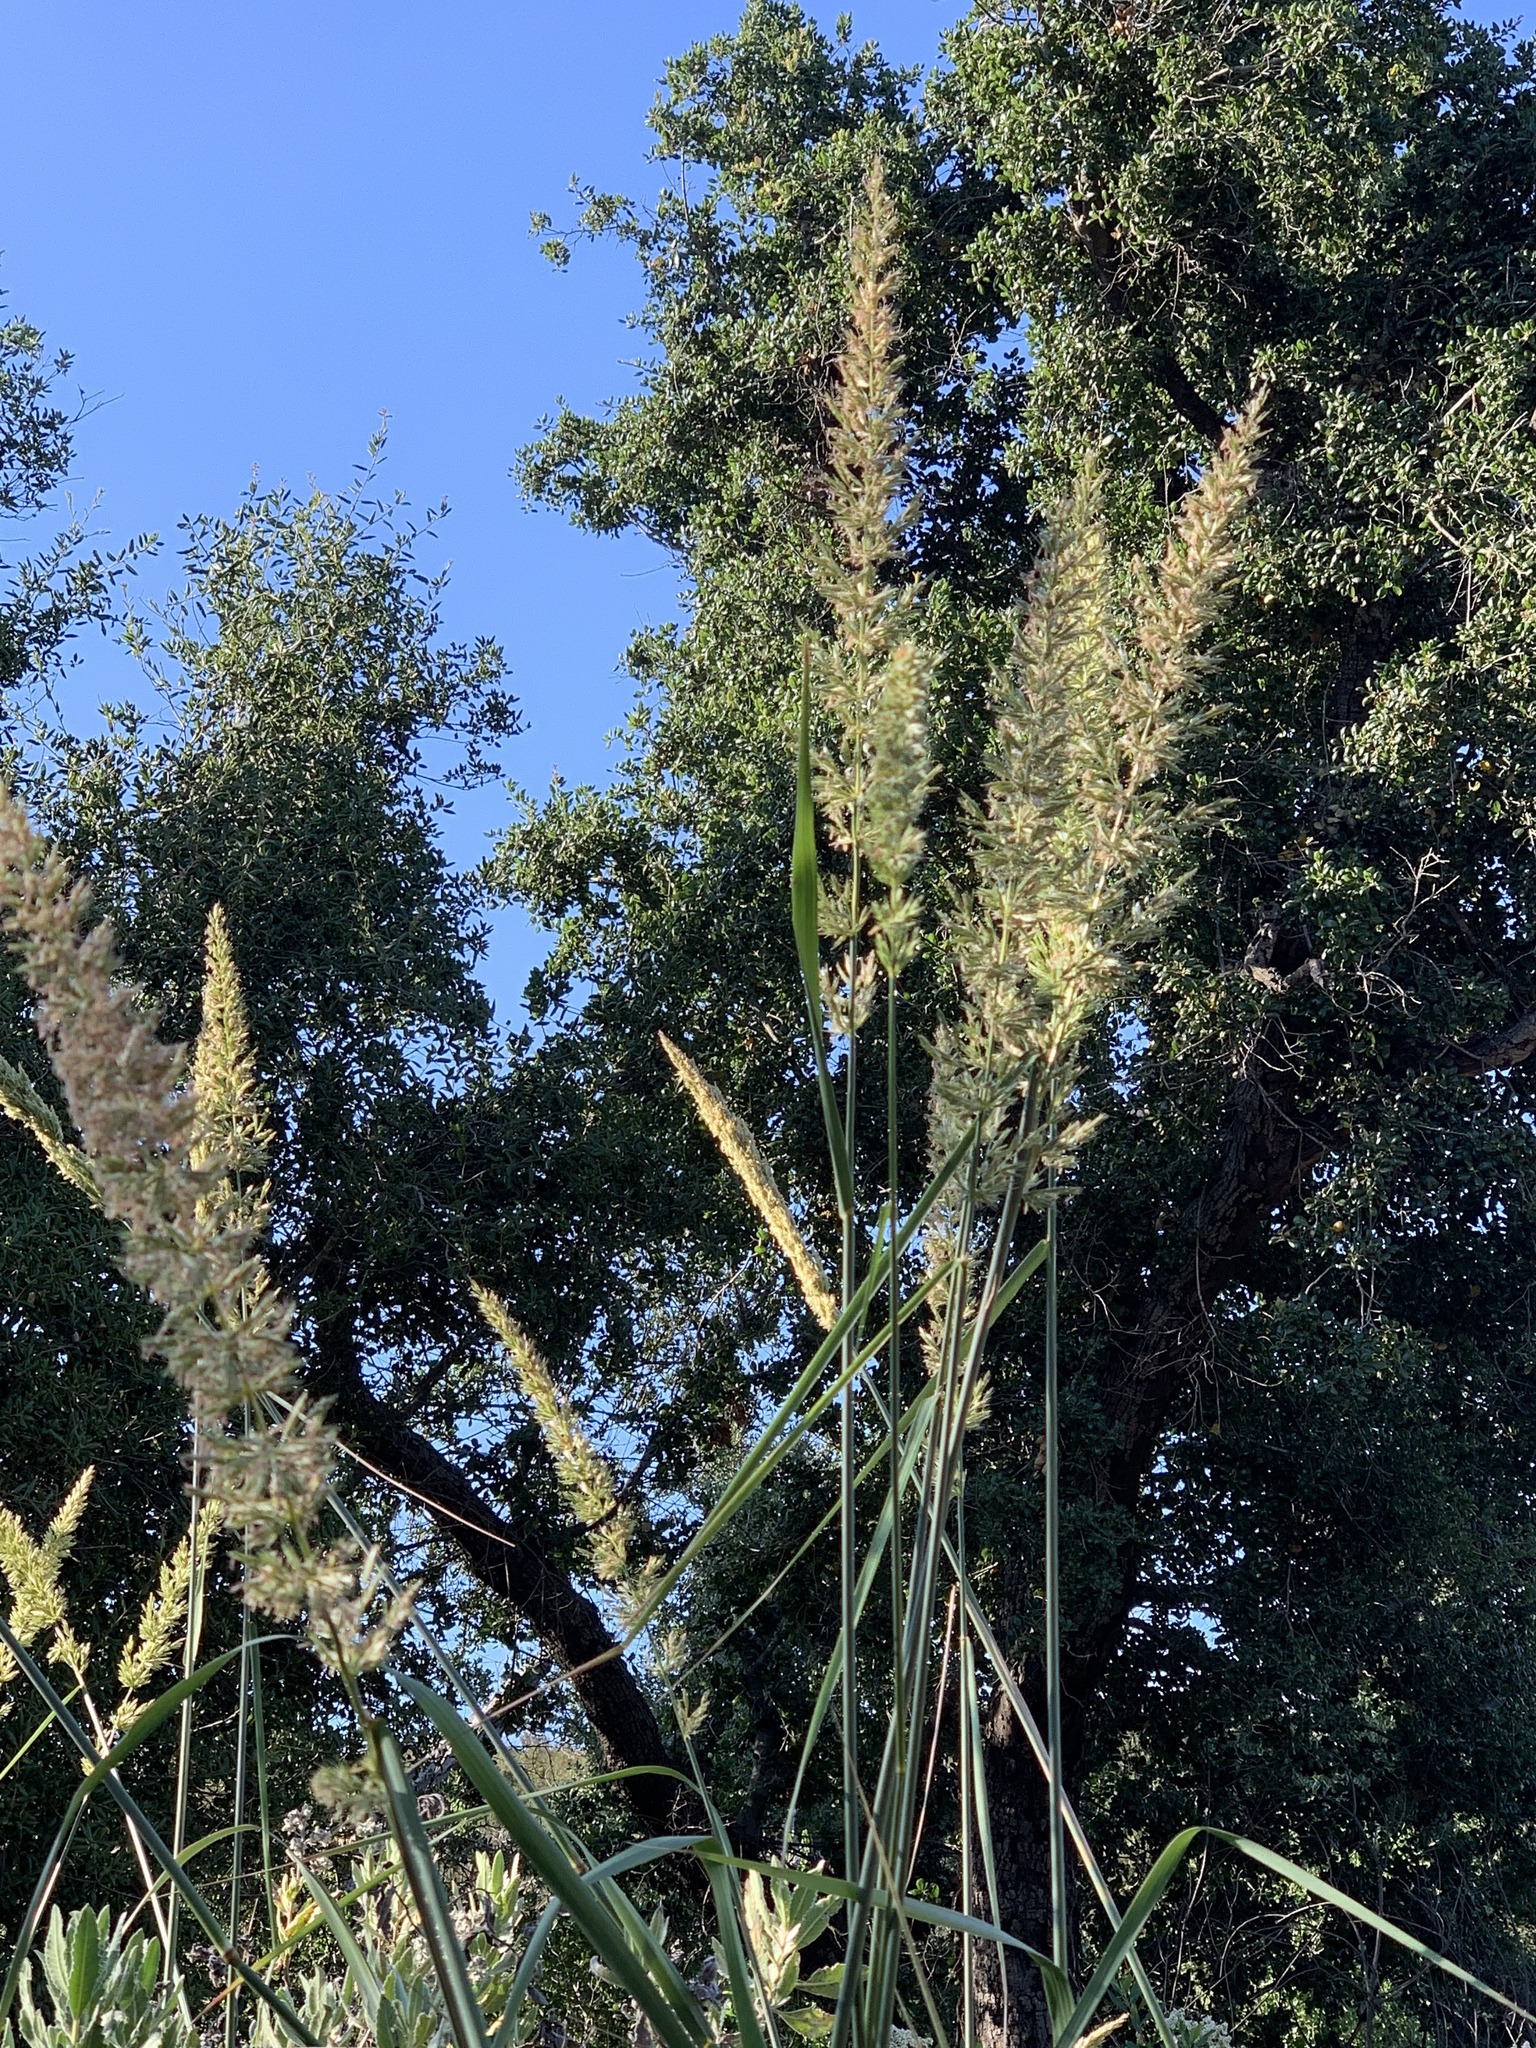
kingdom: Plantae
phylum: Tracheophyta
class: Liliopsida
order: Poales
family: Poaceae
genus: Leymus
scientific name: Leymus condensatus
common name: Giant wild rye
